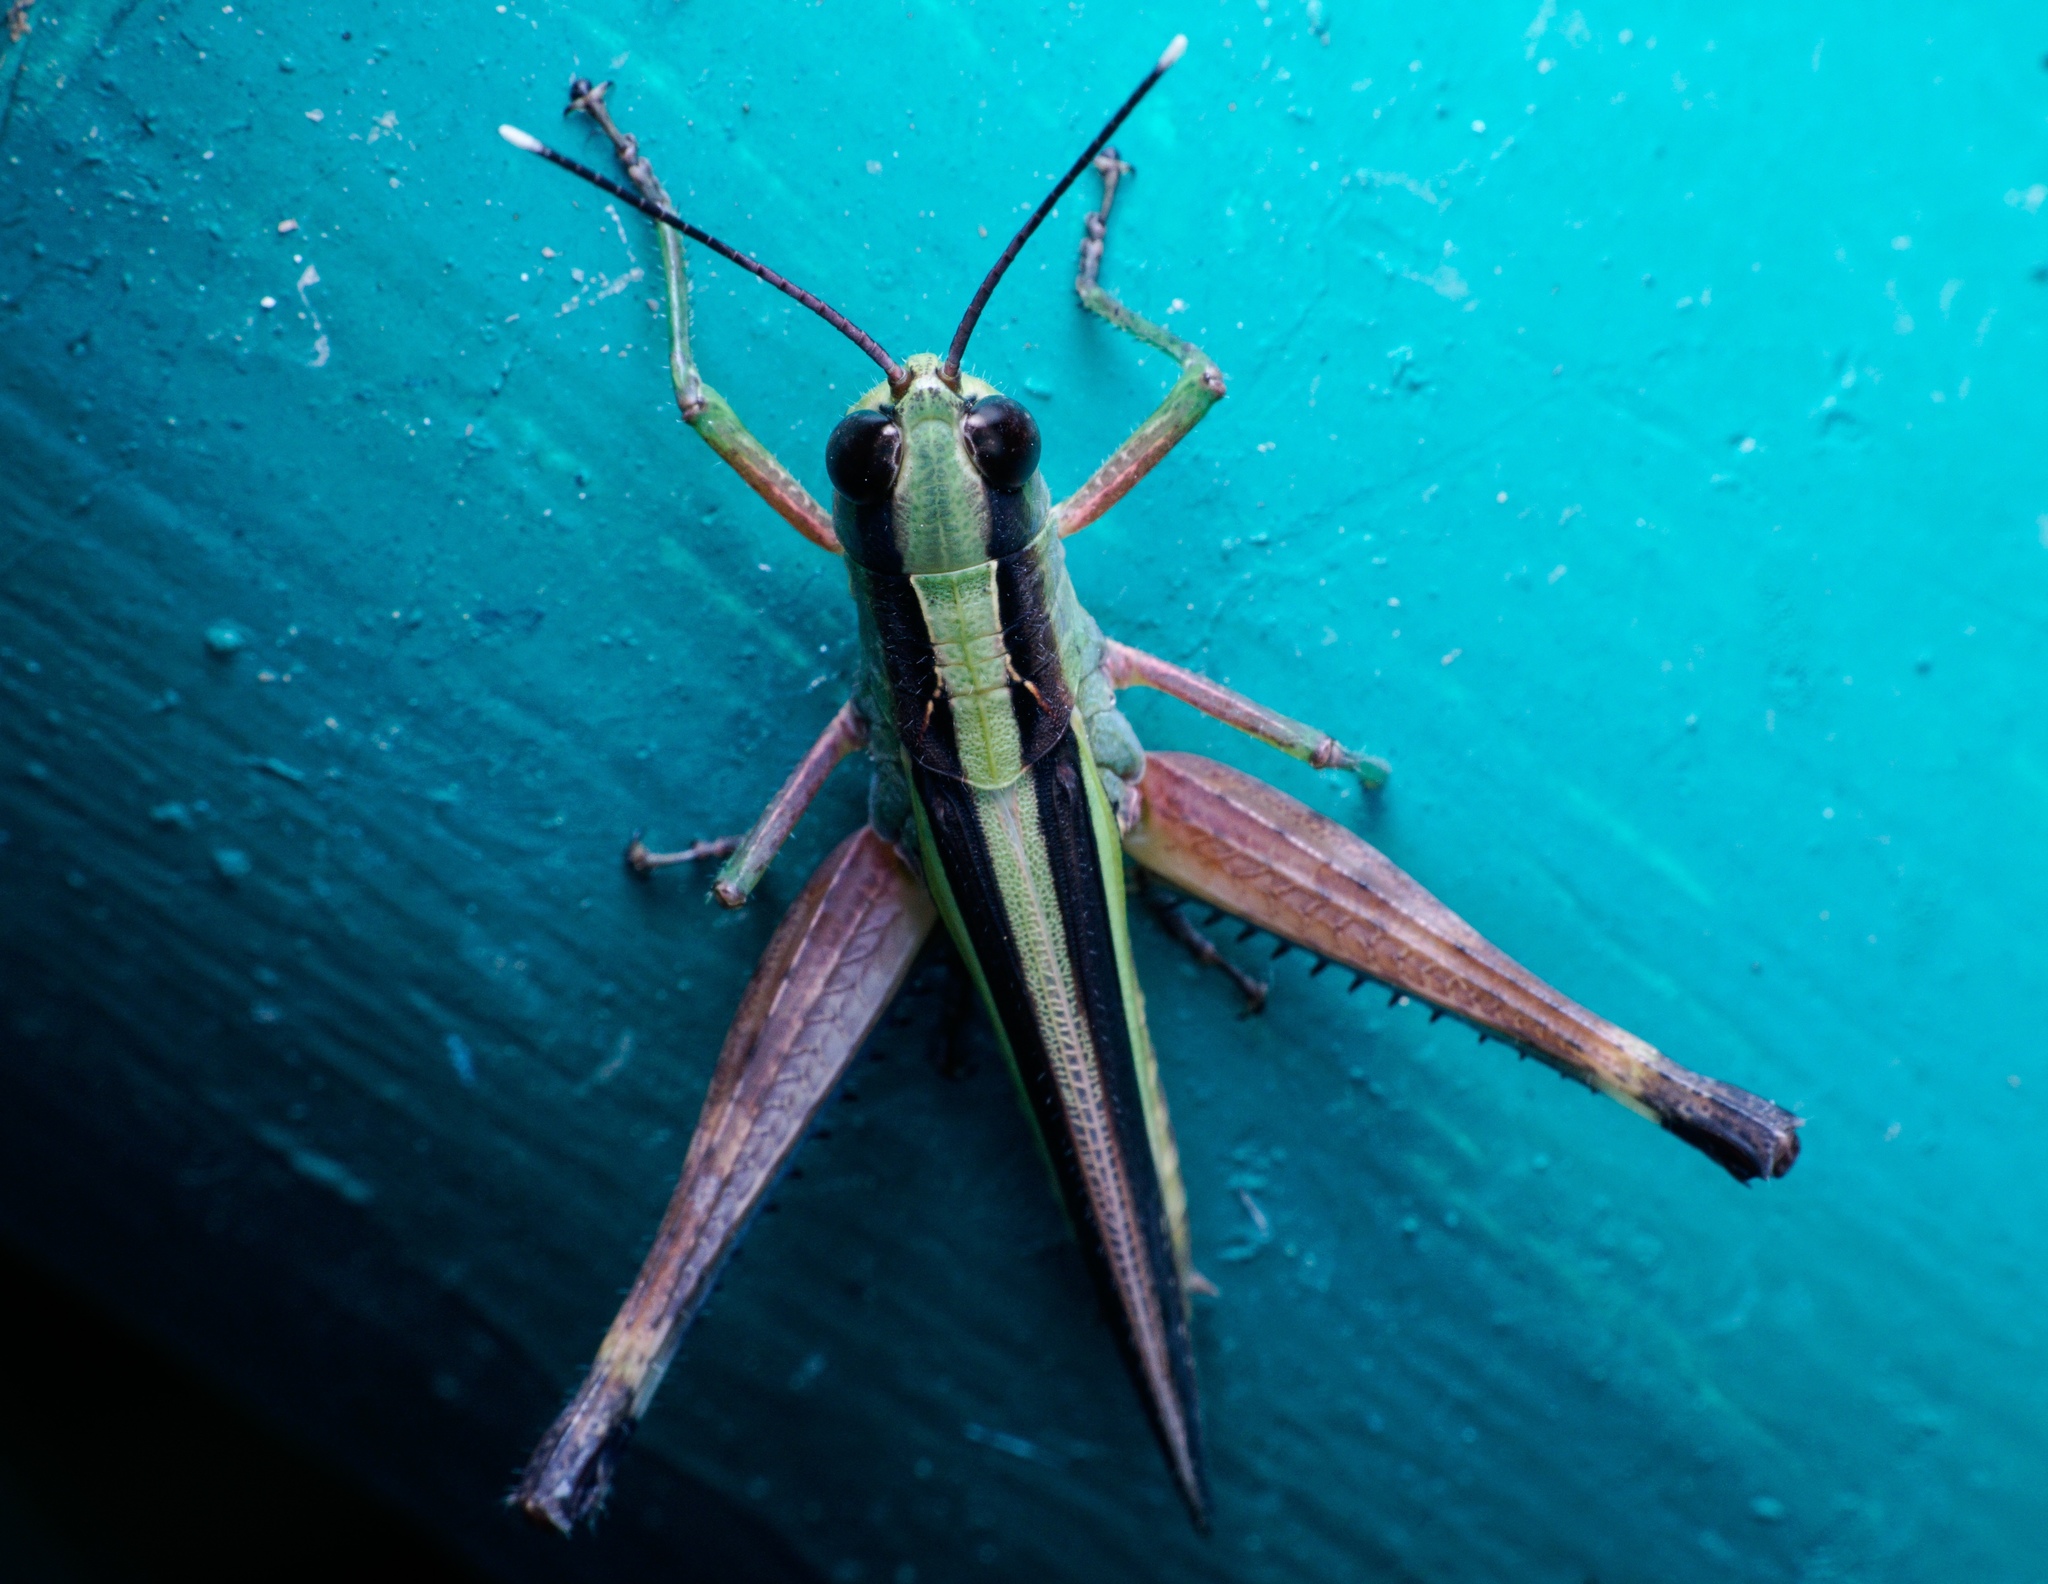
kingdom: Animalia
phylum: Arthropoda
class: Insecta
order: Orthoptera
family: Acrididae
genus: Ceracris
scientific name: Ceracris fasciata
